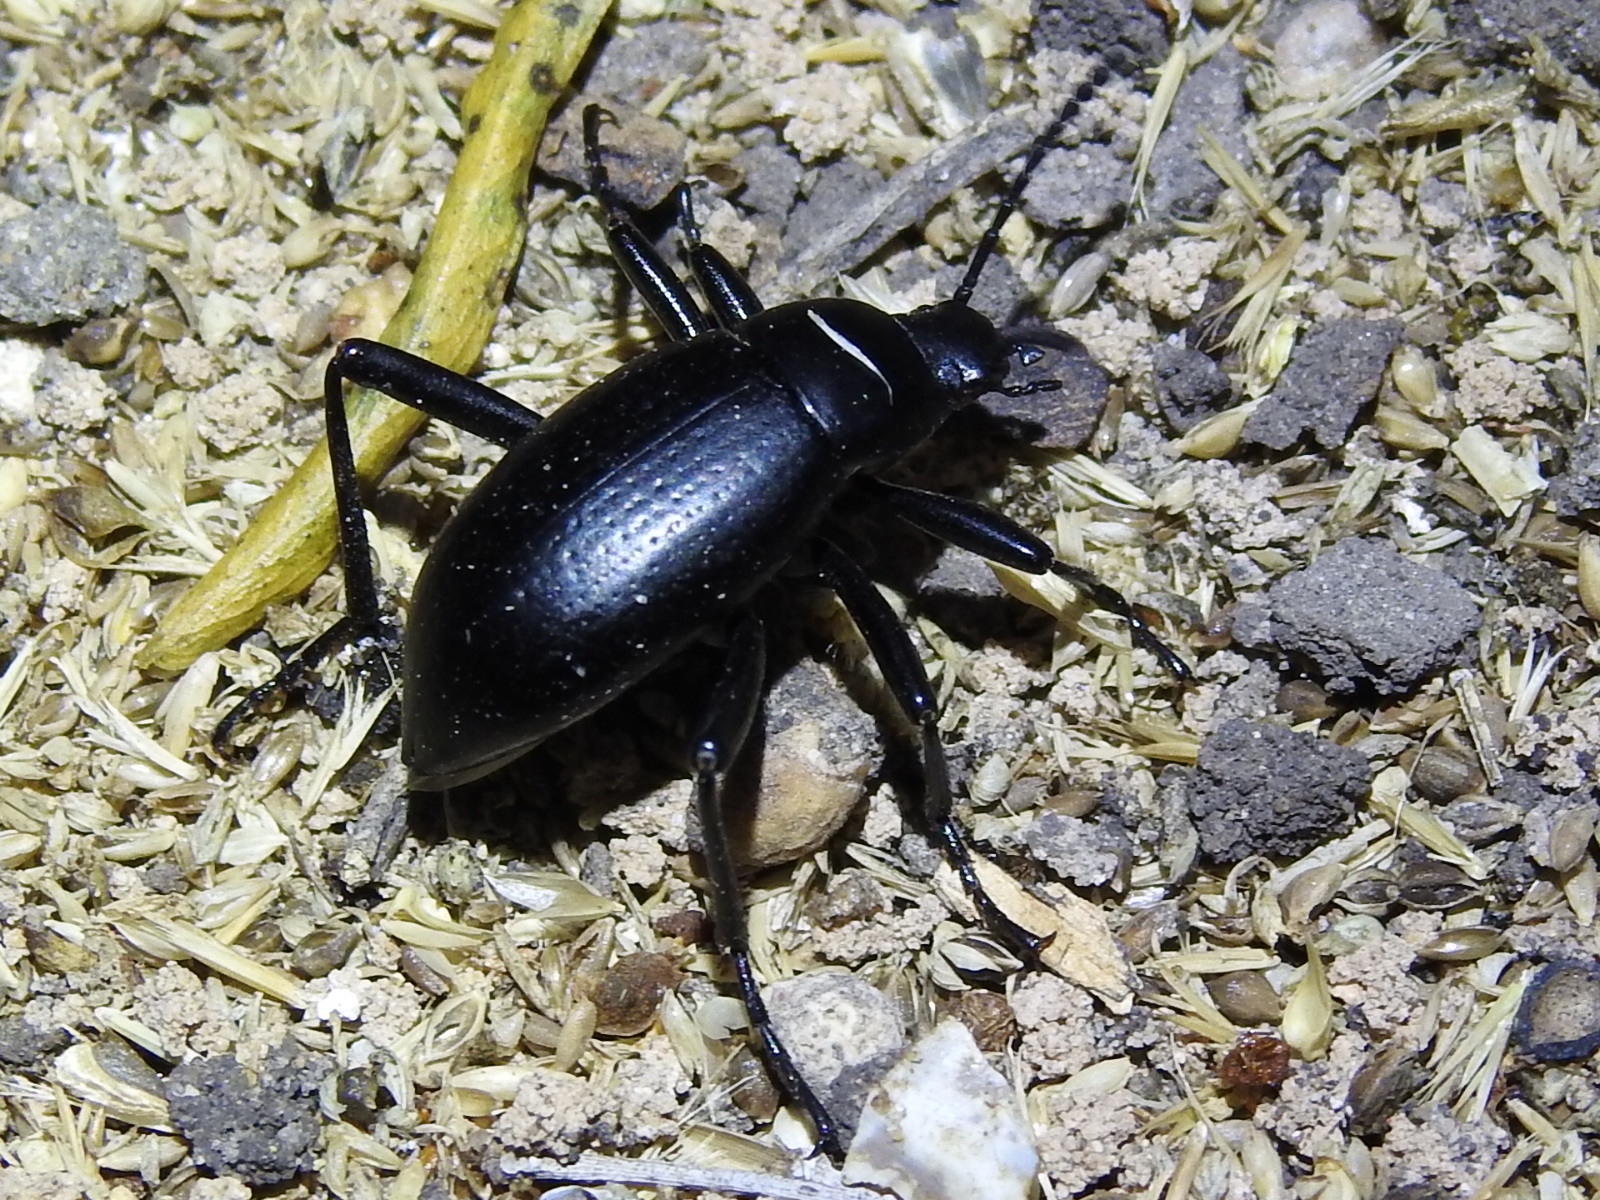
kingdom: Animalia
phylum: Arthropoda
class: Insecta
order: Coleoptera
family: Tenebrionidae
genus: Eleodes
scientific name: Eleodes goryi
